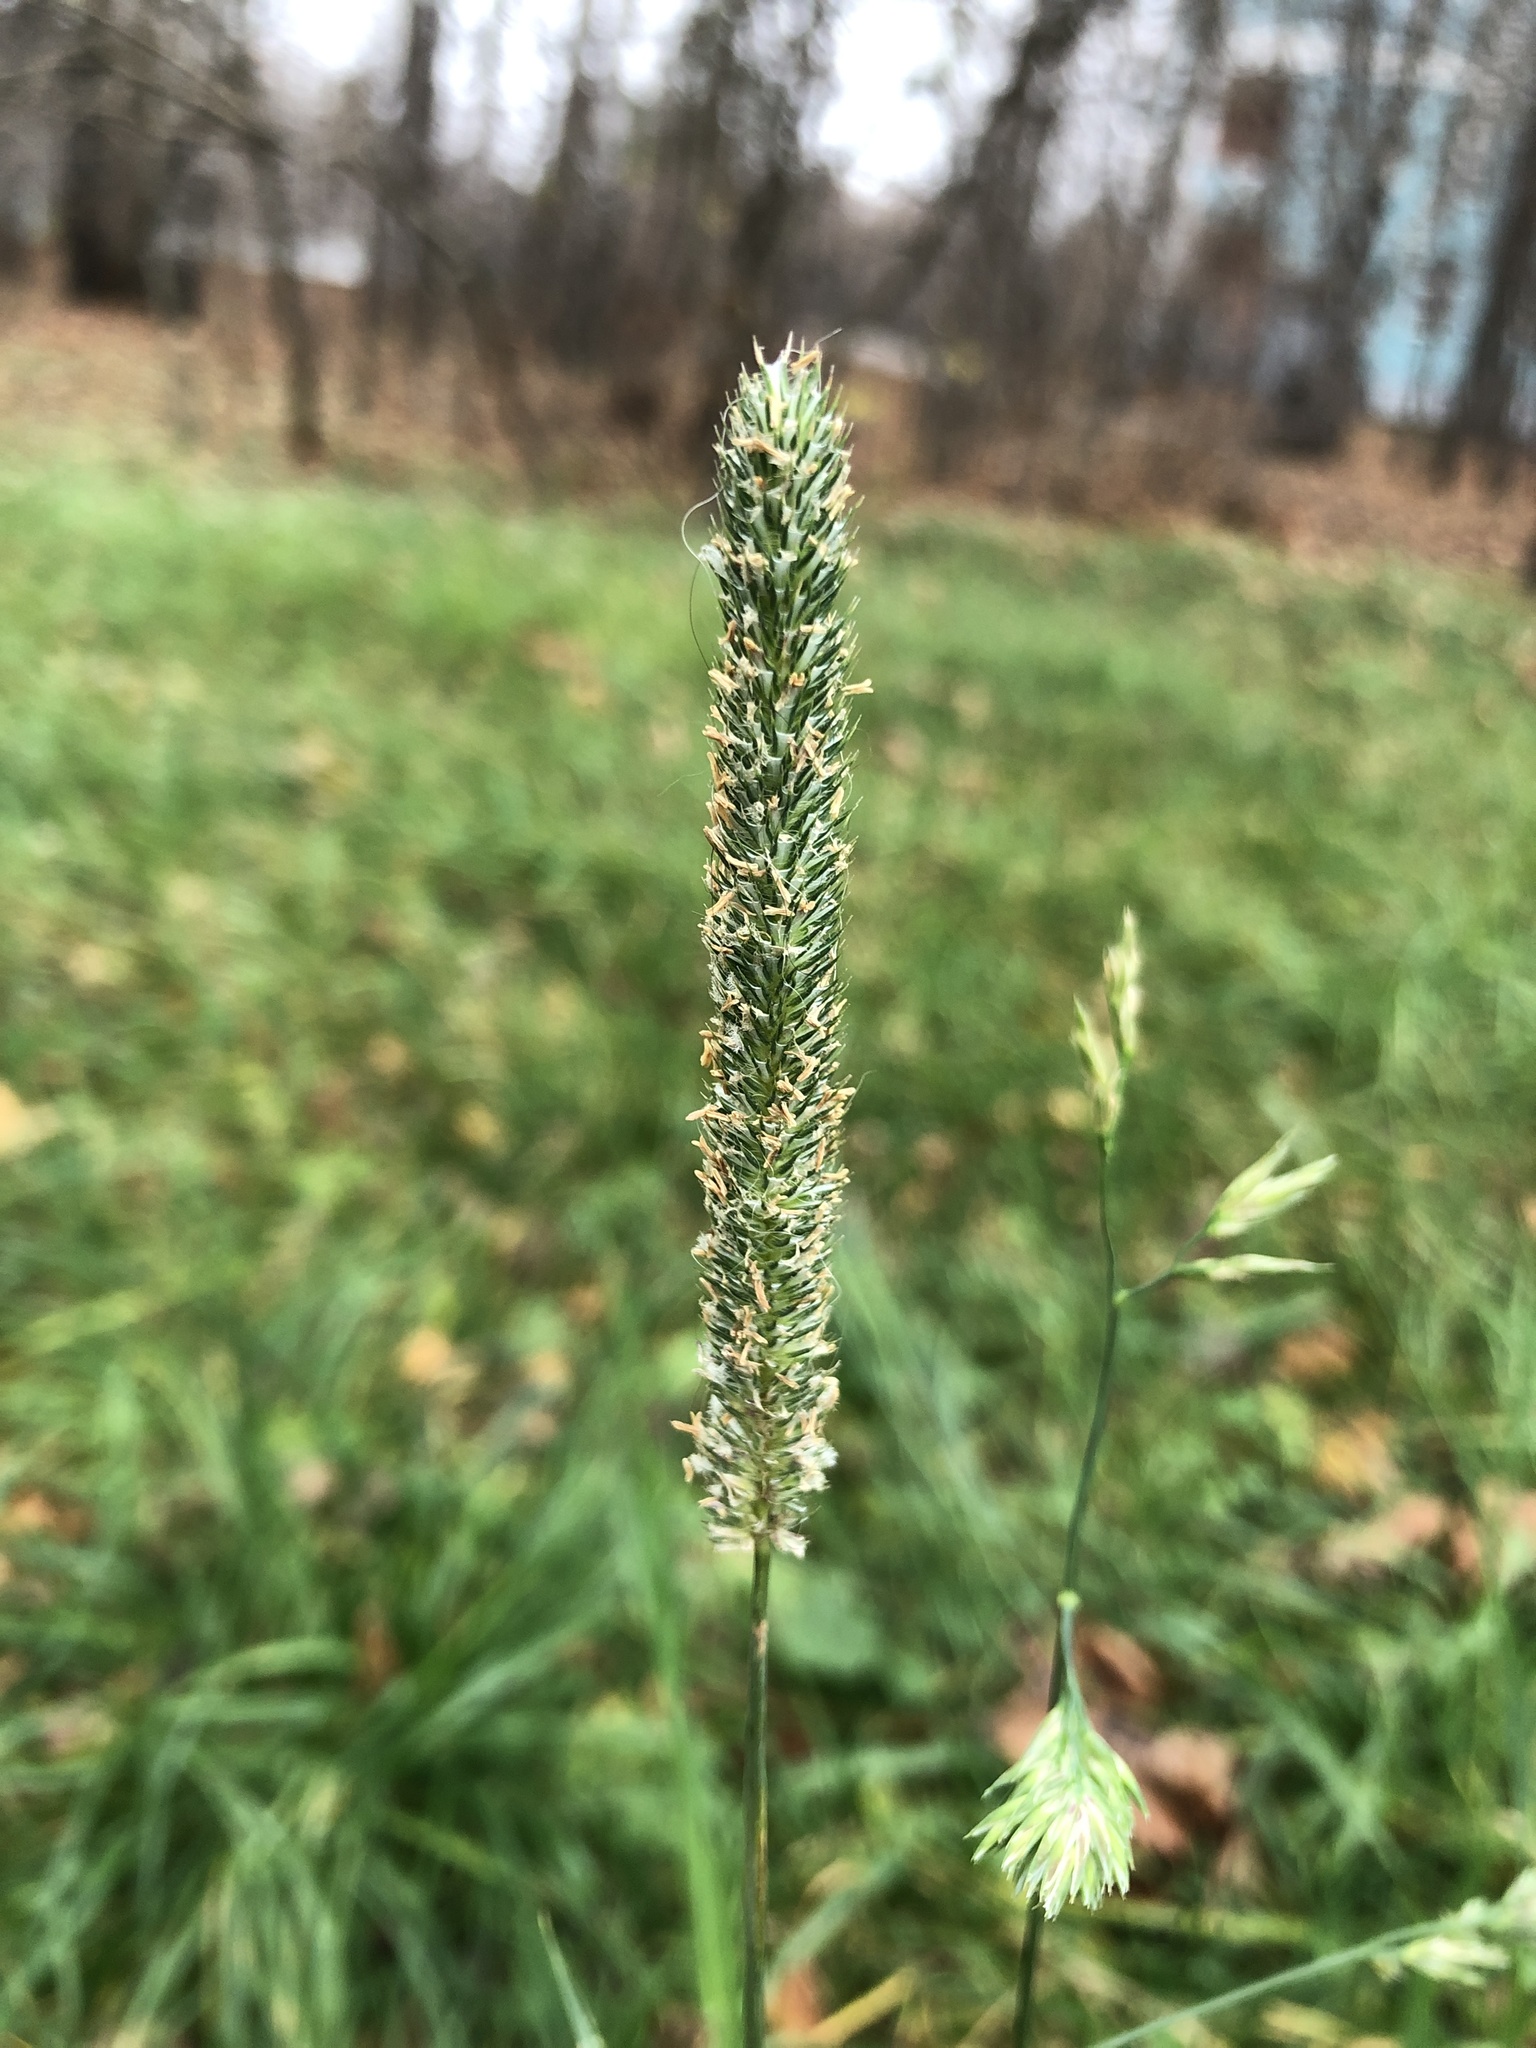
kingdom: Plantae
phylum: Tracheophyta
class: Liliopsida
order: Poales
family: Poaceae
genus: Phleum
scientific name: Phleum pratense
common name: Timothy grass
